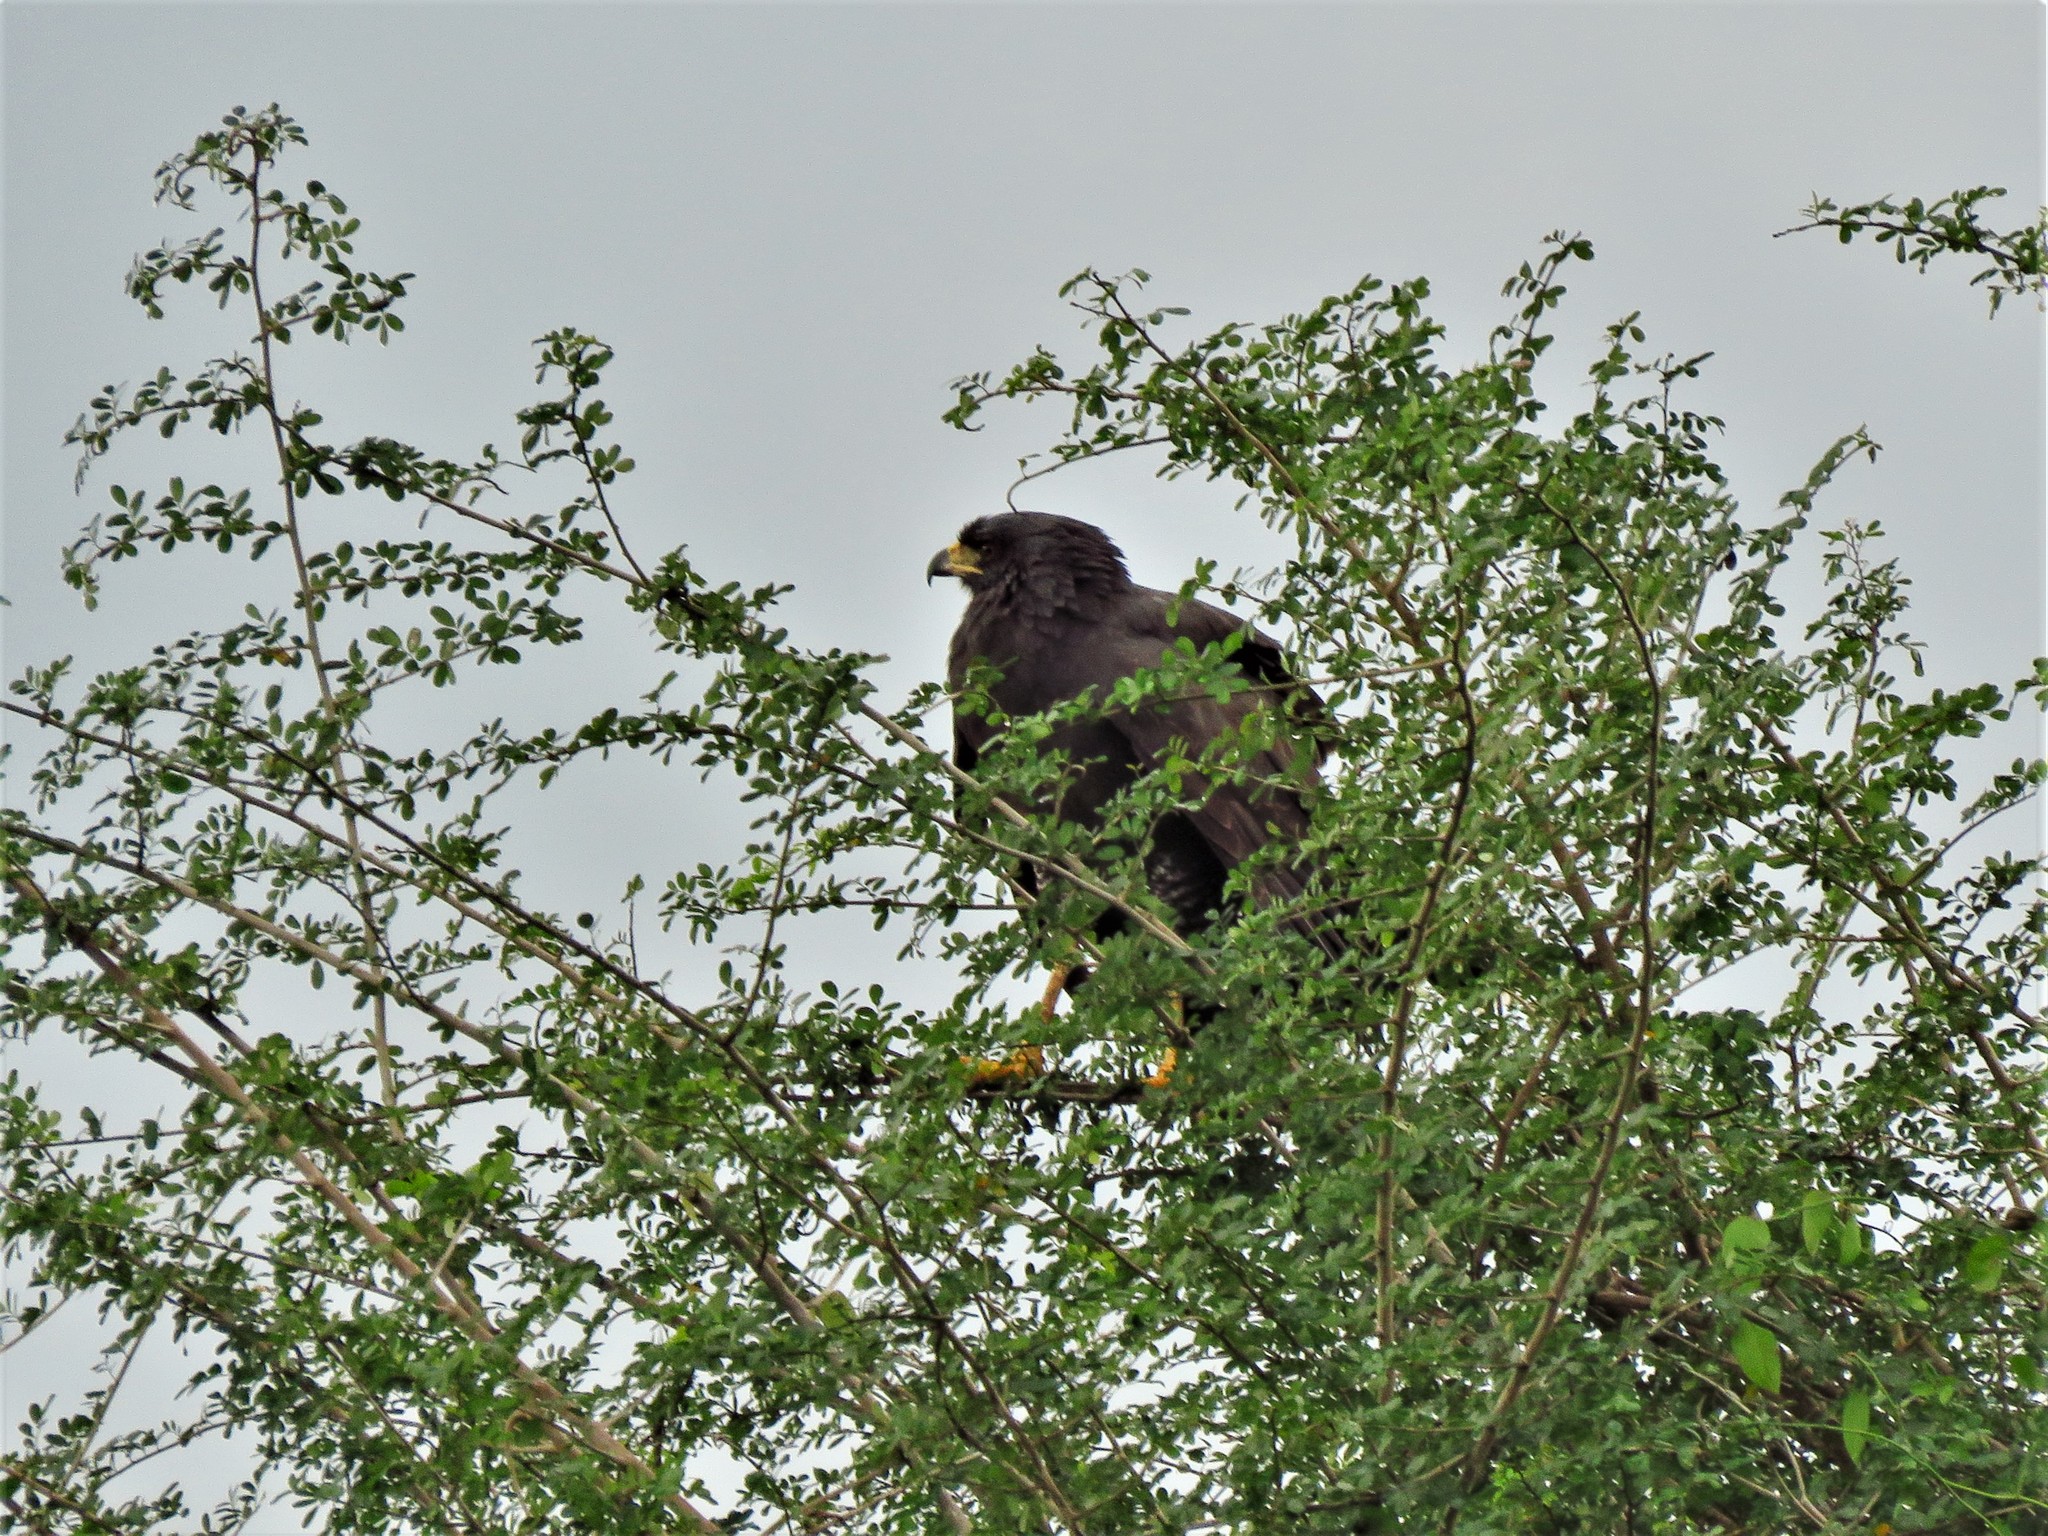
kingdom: Animalia
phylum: Chordata
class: Aves
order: Accipitriformes
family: Accipitridae
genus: Buteogallus
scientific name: Buteogallus urubitinga
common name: Great black hawk
